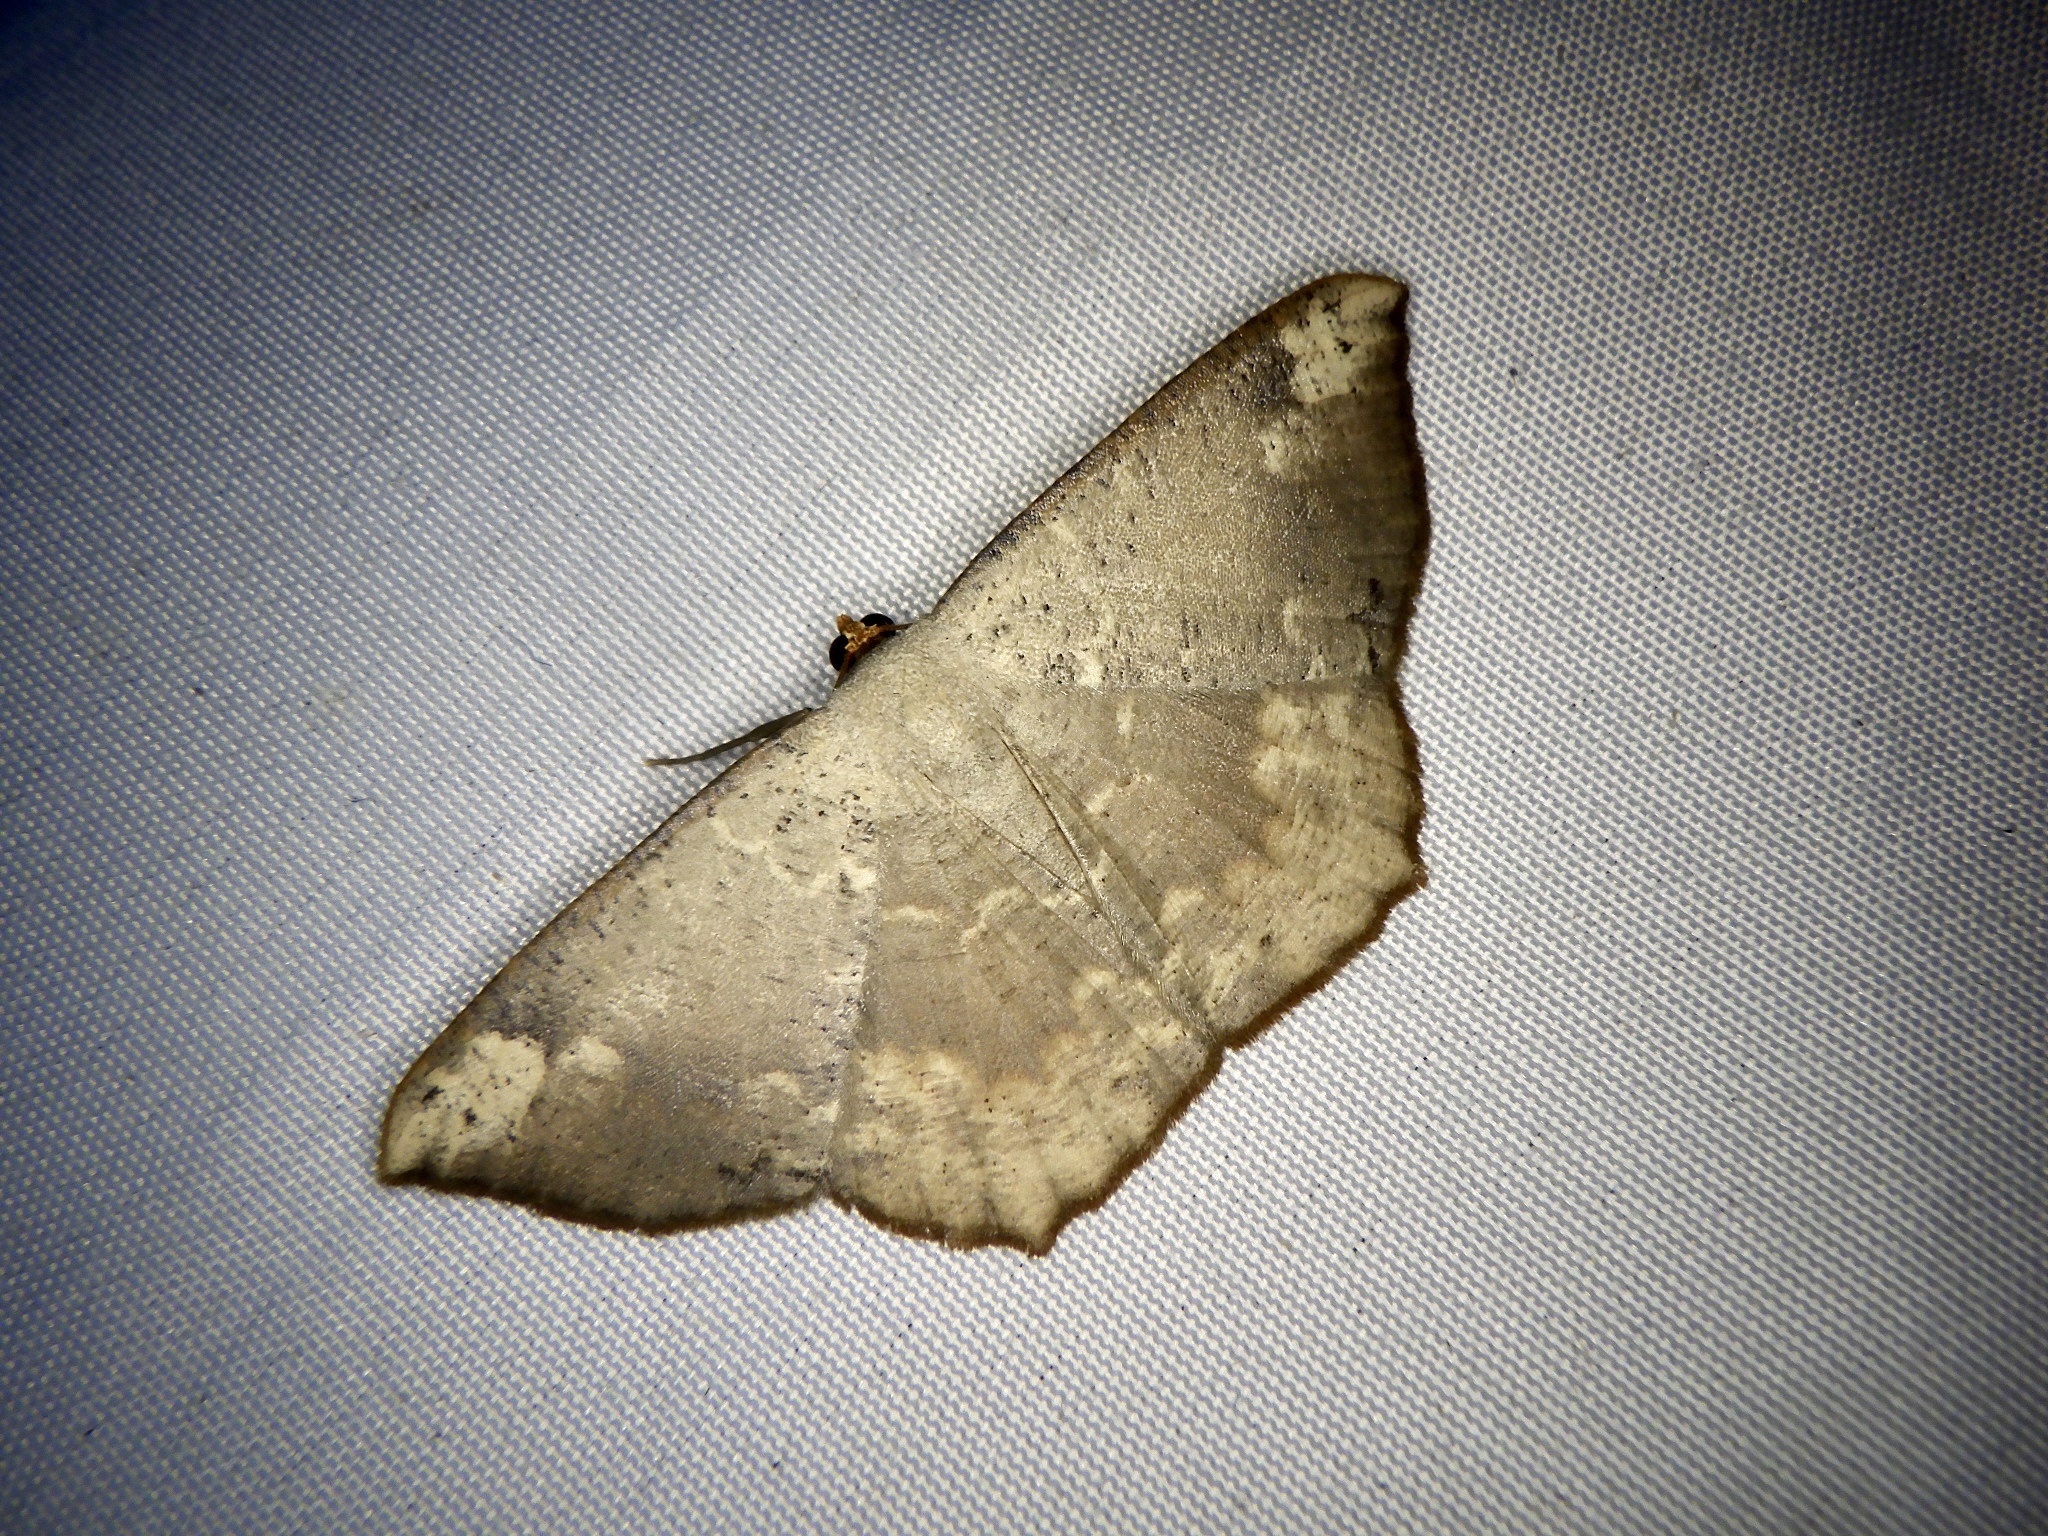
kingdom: Animalia
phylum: Arthropoda
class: Insecta
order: Lepidoptera
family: Geometridae
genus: Peratostega
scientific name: Peratostega deletaria
